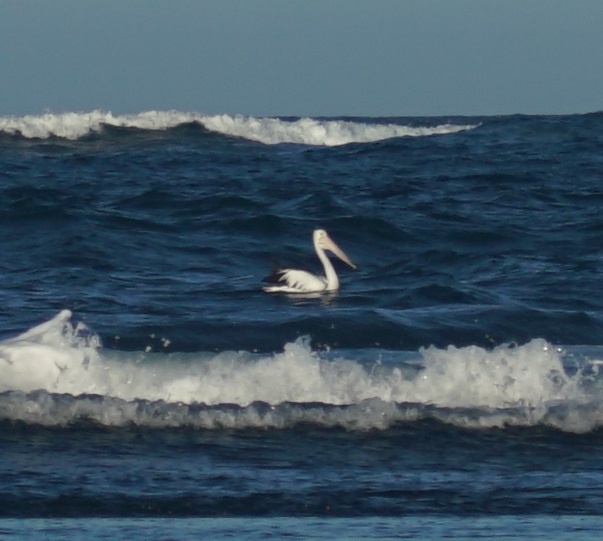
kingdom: Animalia
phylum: Chordata
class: Aves
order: Pelecaniformes
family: Pelecanidae
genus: Pelecanus
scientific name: Pelecanus conspicillatus
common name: Australian pelican
